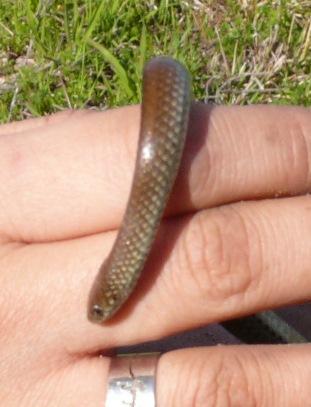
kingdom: Animalia
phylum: Chordata
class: Squamata
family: Pseudoxyrhophiidae
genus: Duberria
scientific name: Duberria lutrix
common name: Common slug eater
